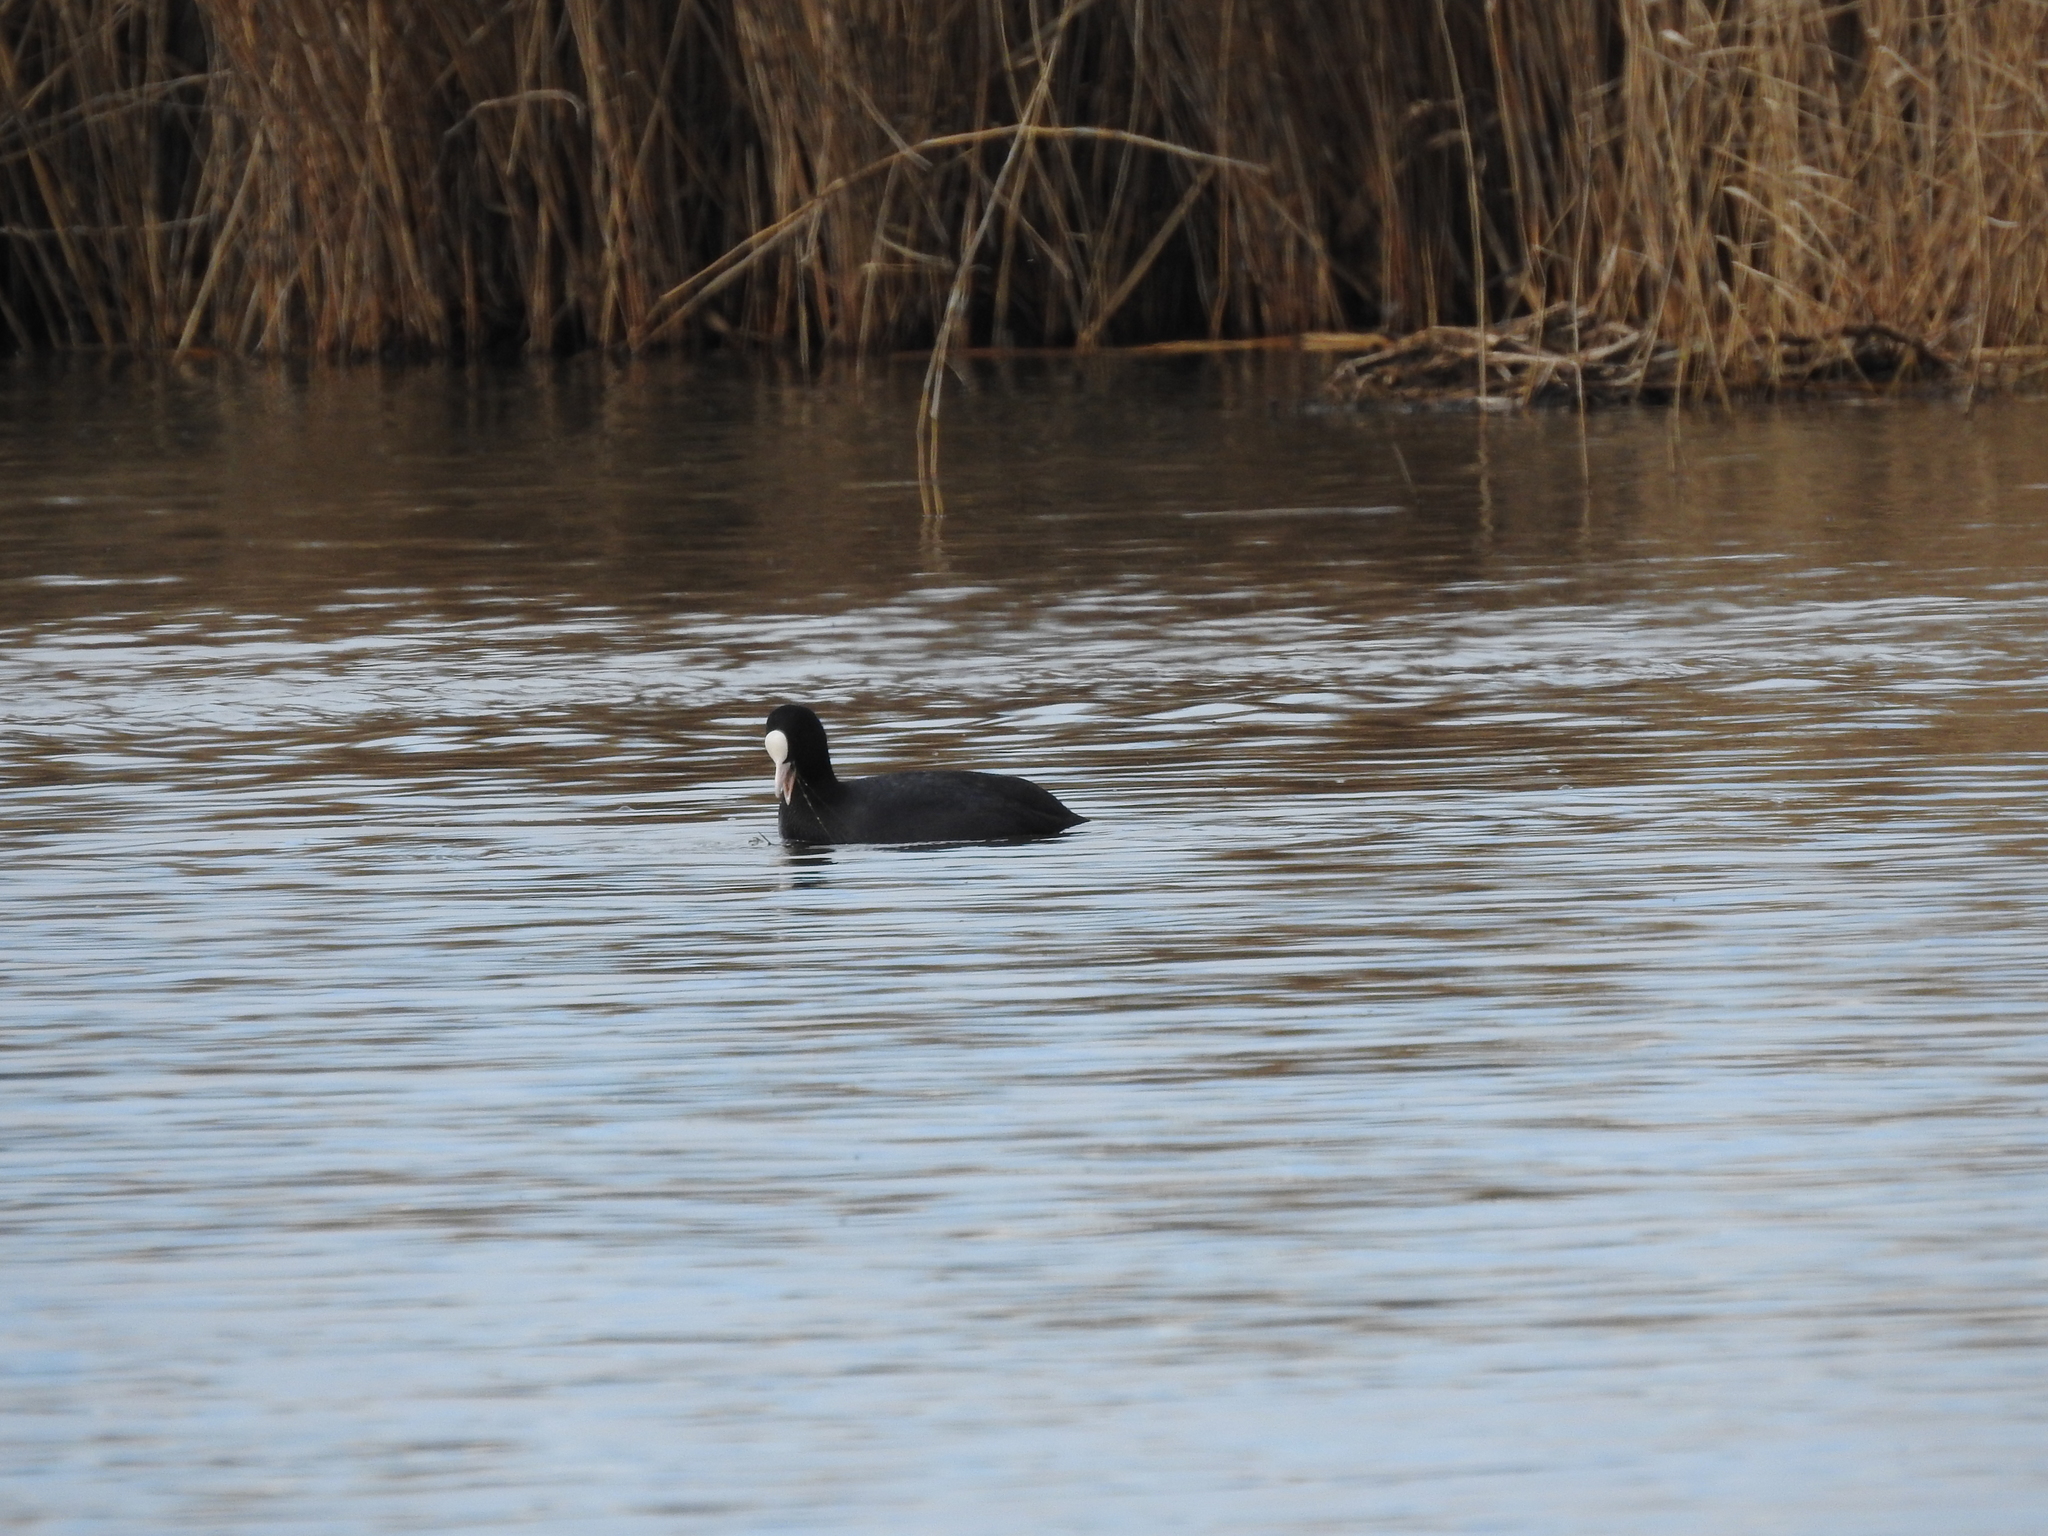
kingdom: Animalia
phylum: Chordata
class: Aves
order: Gruiformes
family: Rallidae
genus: Fulica
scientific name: Fulica atra
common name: Eurasian coot
